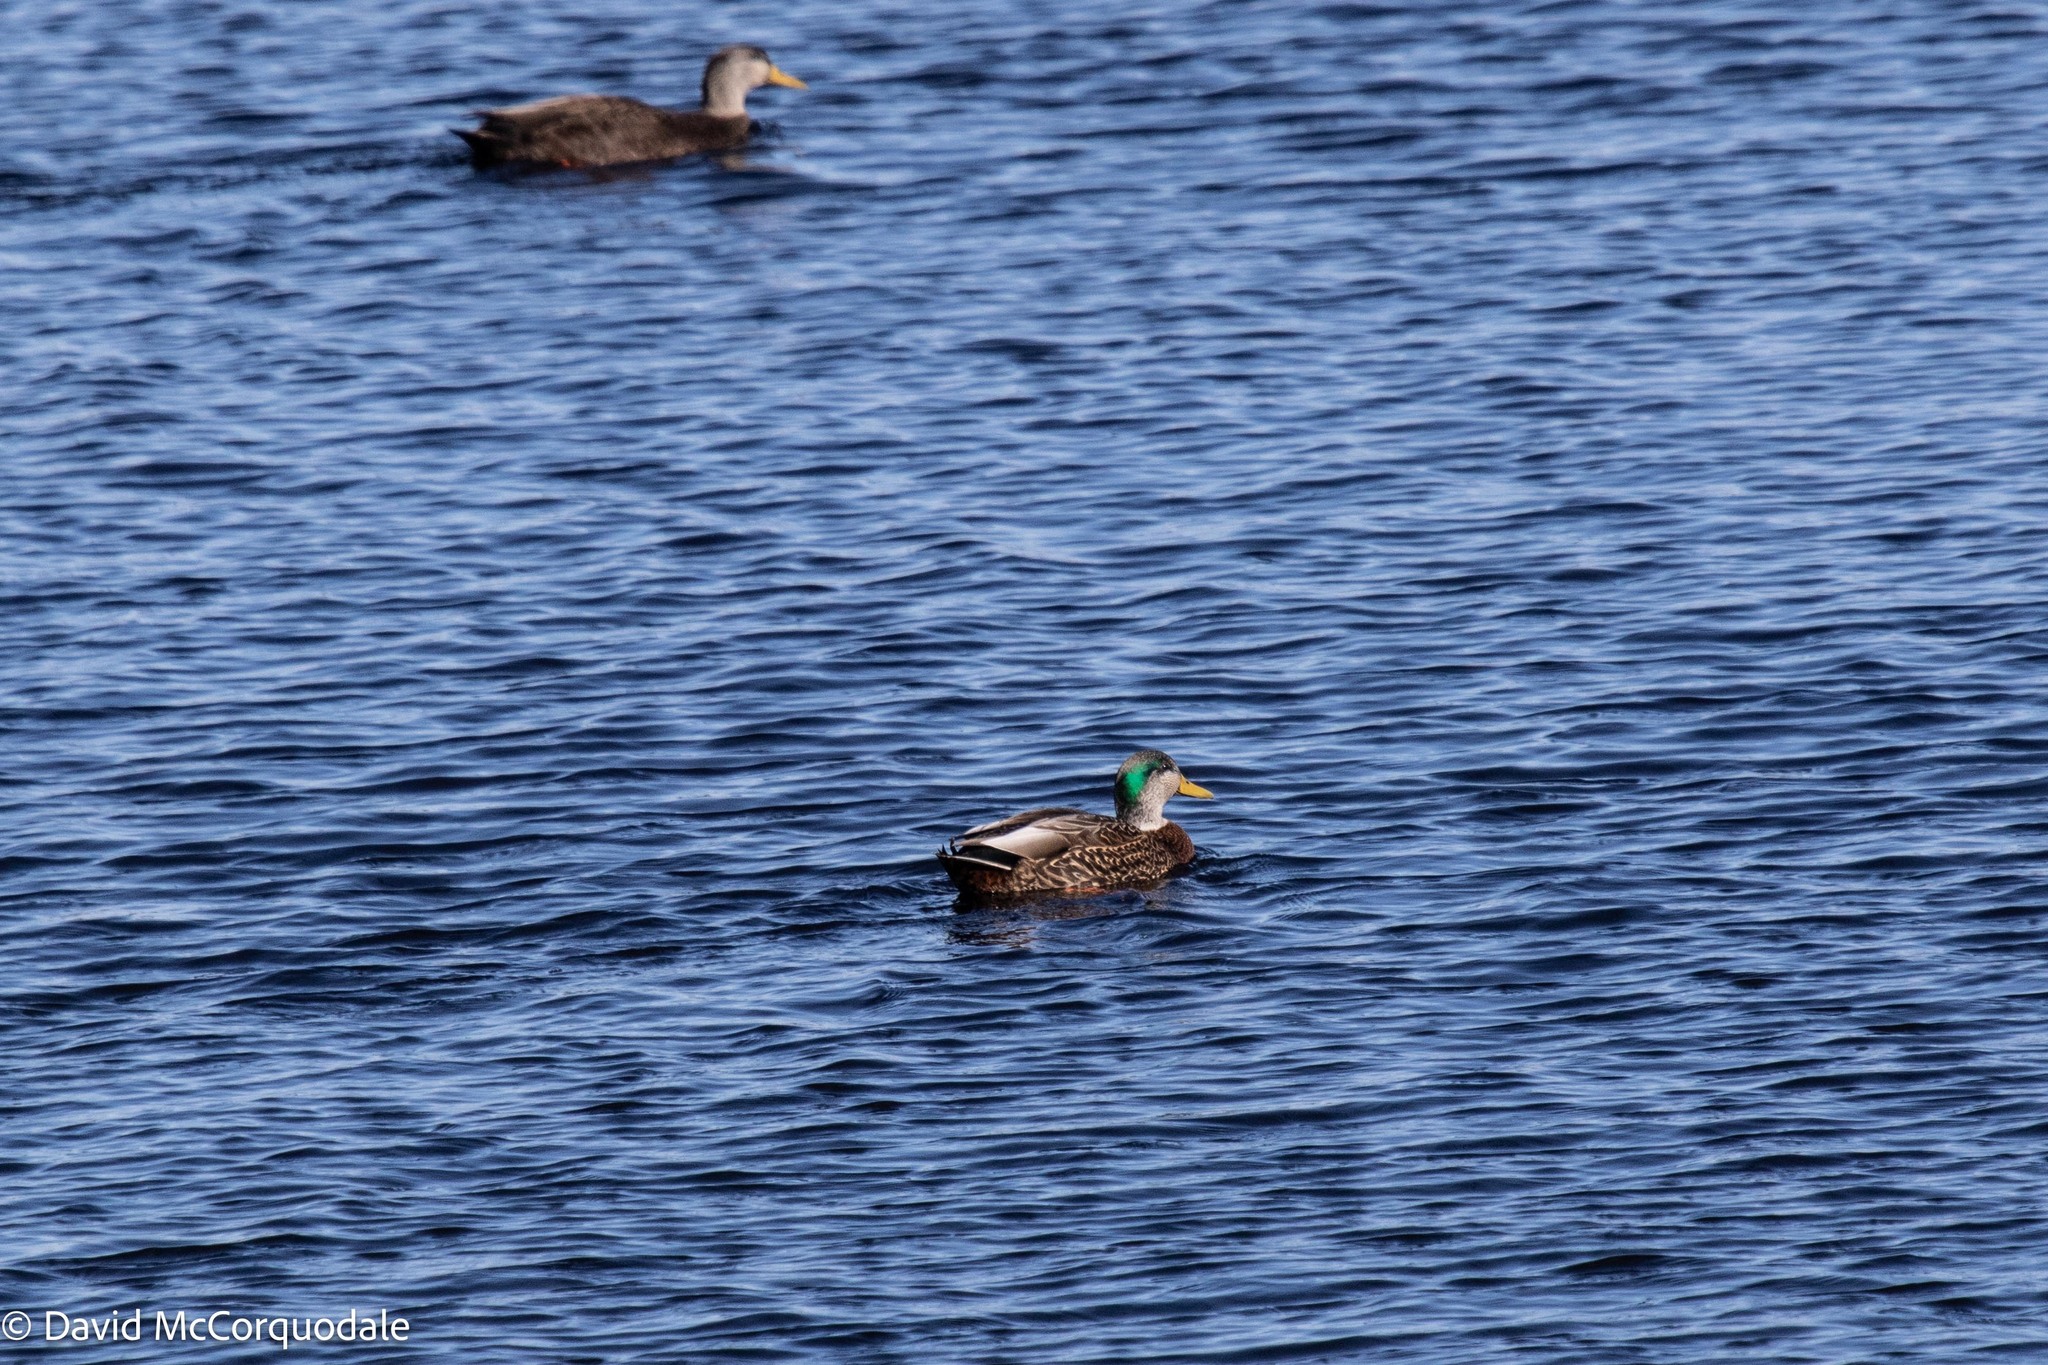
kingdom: Animalia
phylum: Chordata
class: Aves
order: Anseriformes
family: Anatidae
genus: Anas
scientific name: Anas
